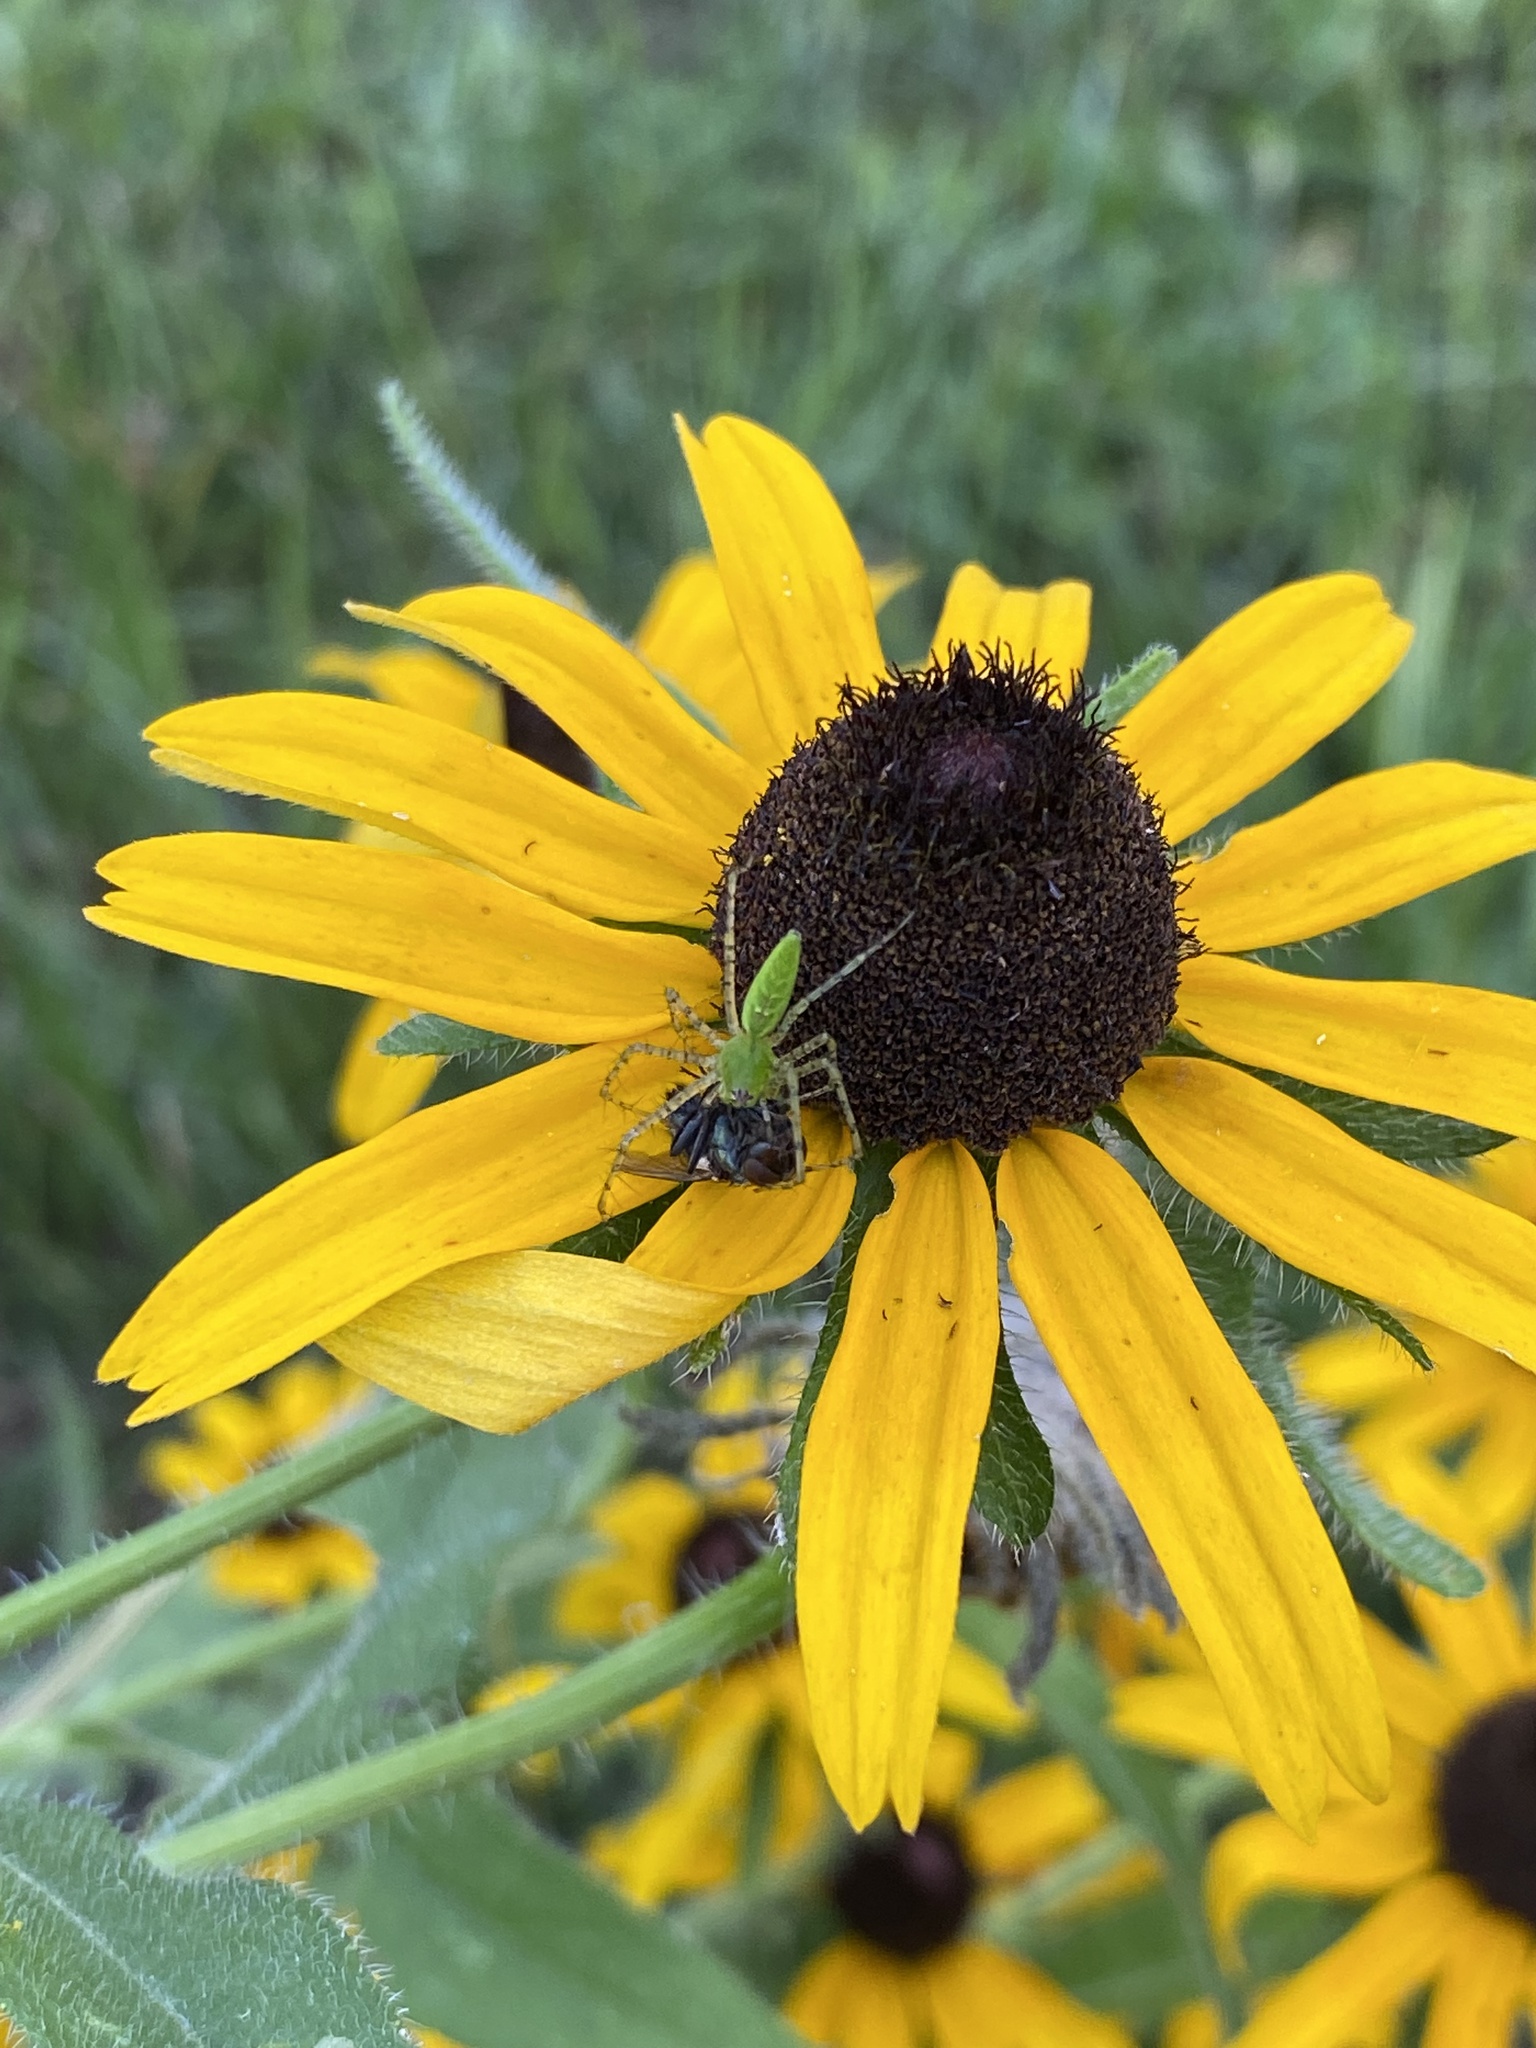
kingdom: Animalia
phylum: Arthropoda
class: Arachnida
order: Araneae
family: Oxyopidae
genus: Peucetia
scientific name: Peucetia viridans
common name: Lynx spiders
